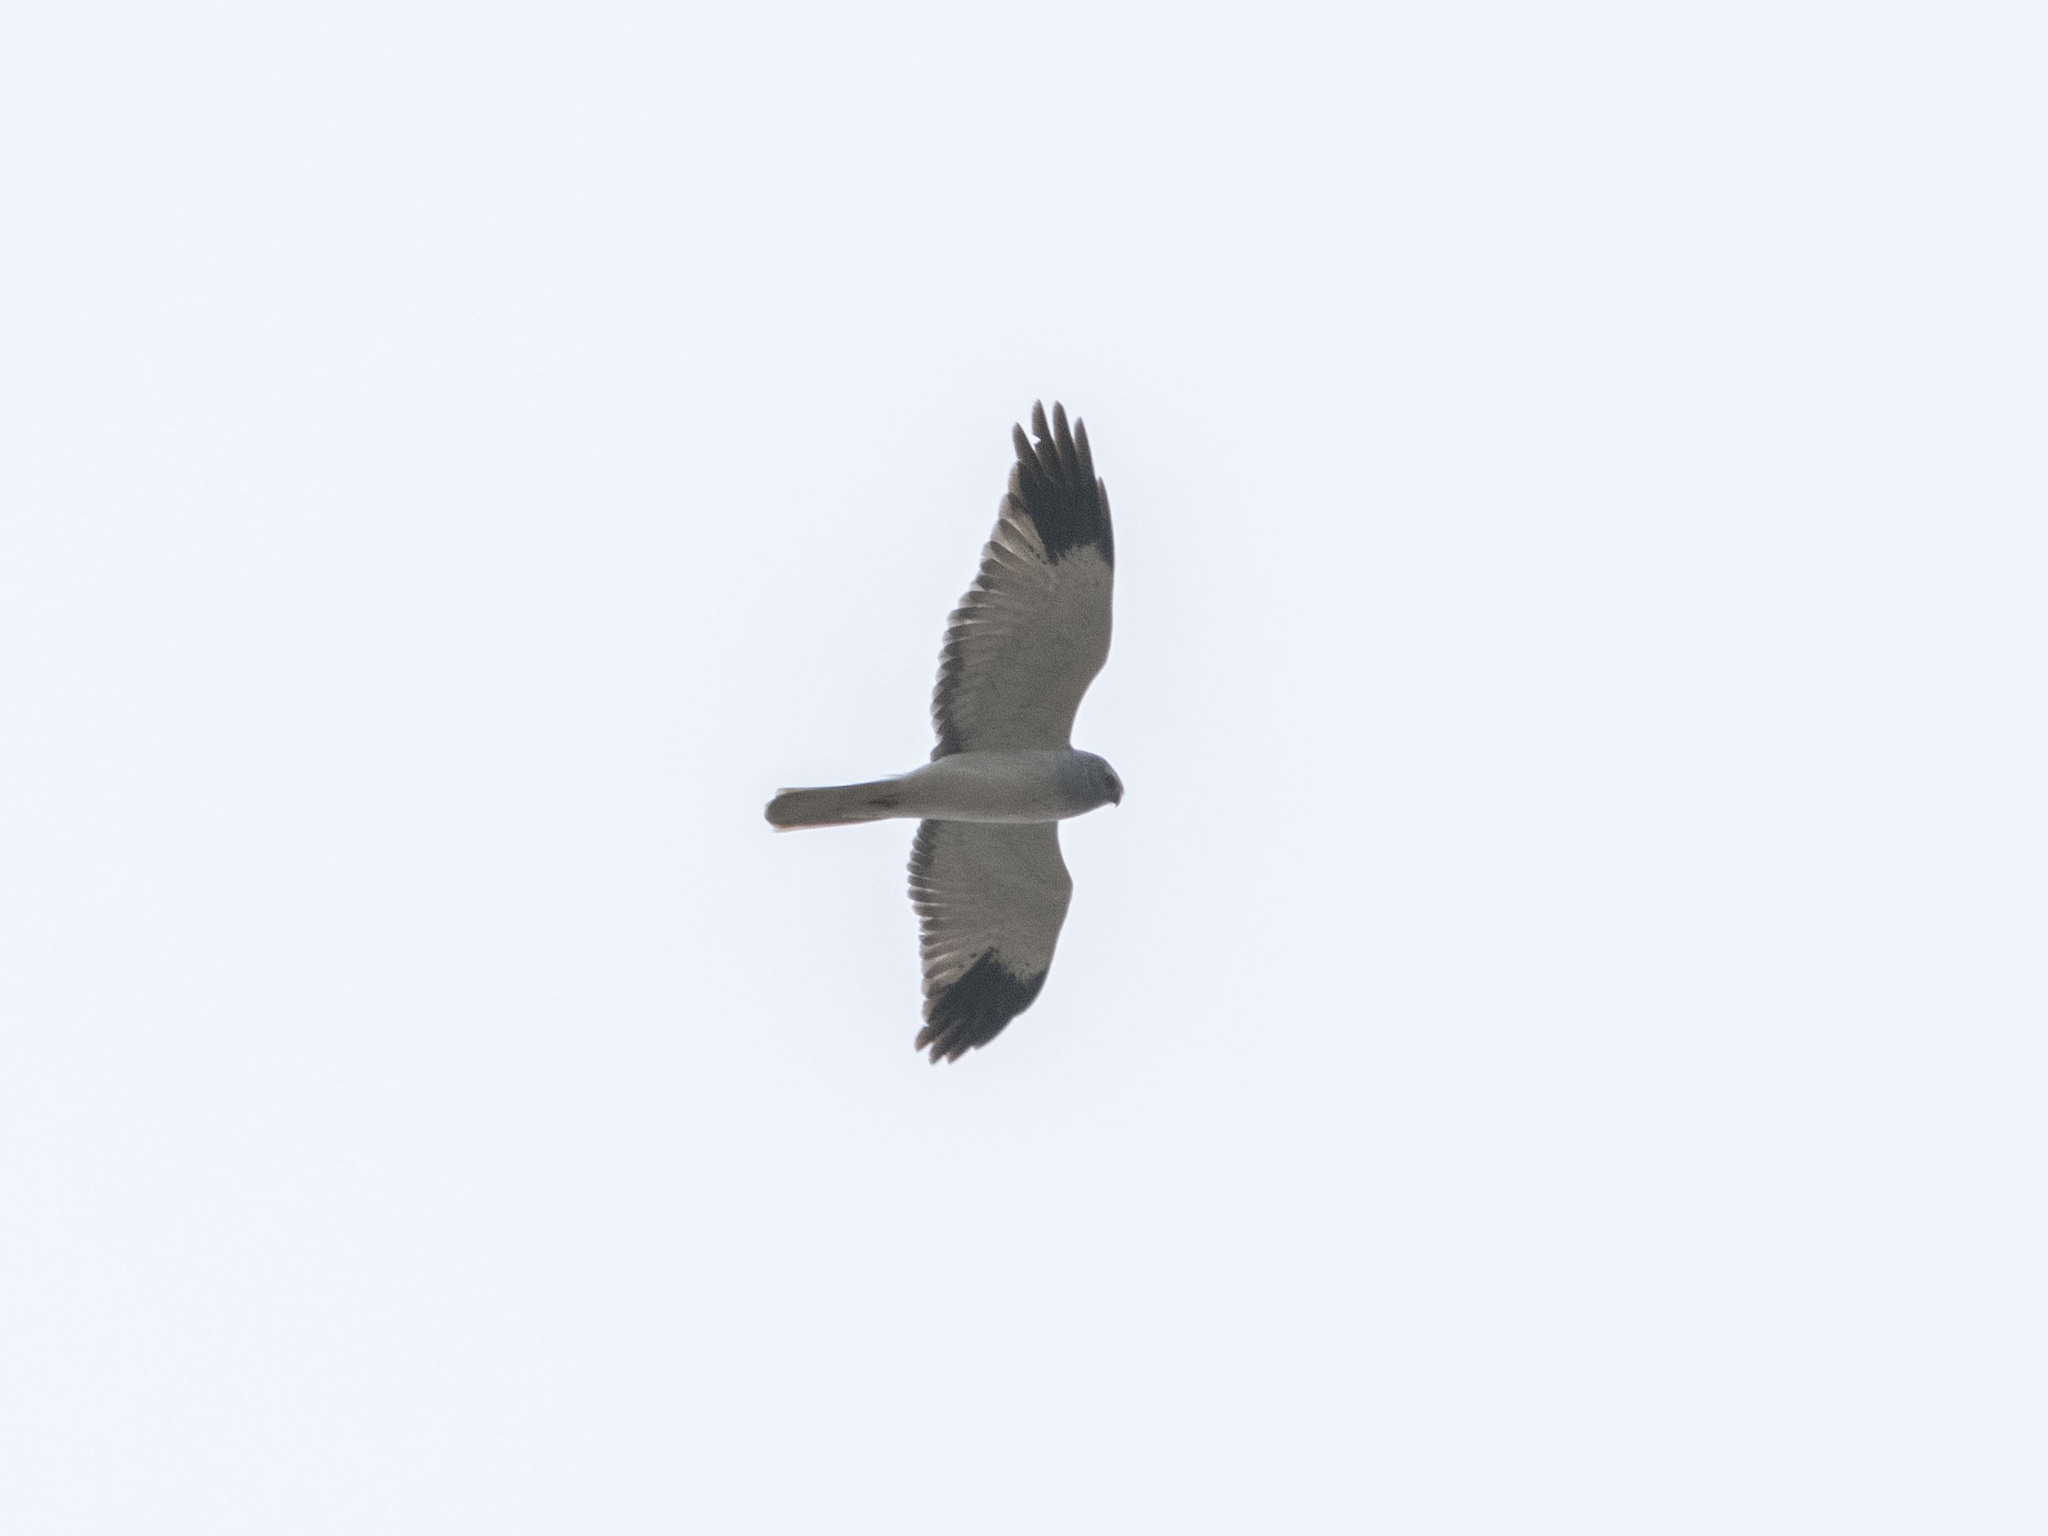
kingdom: Animalia
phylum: Chordata
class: Aves
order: Accipitriformes
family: Accipitridae
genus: Circus
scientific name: Circus cyaneus
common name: Hen harrier
